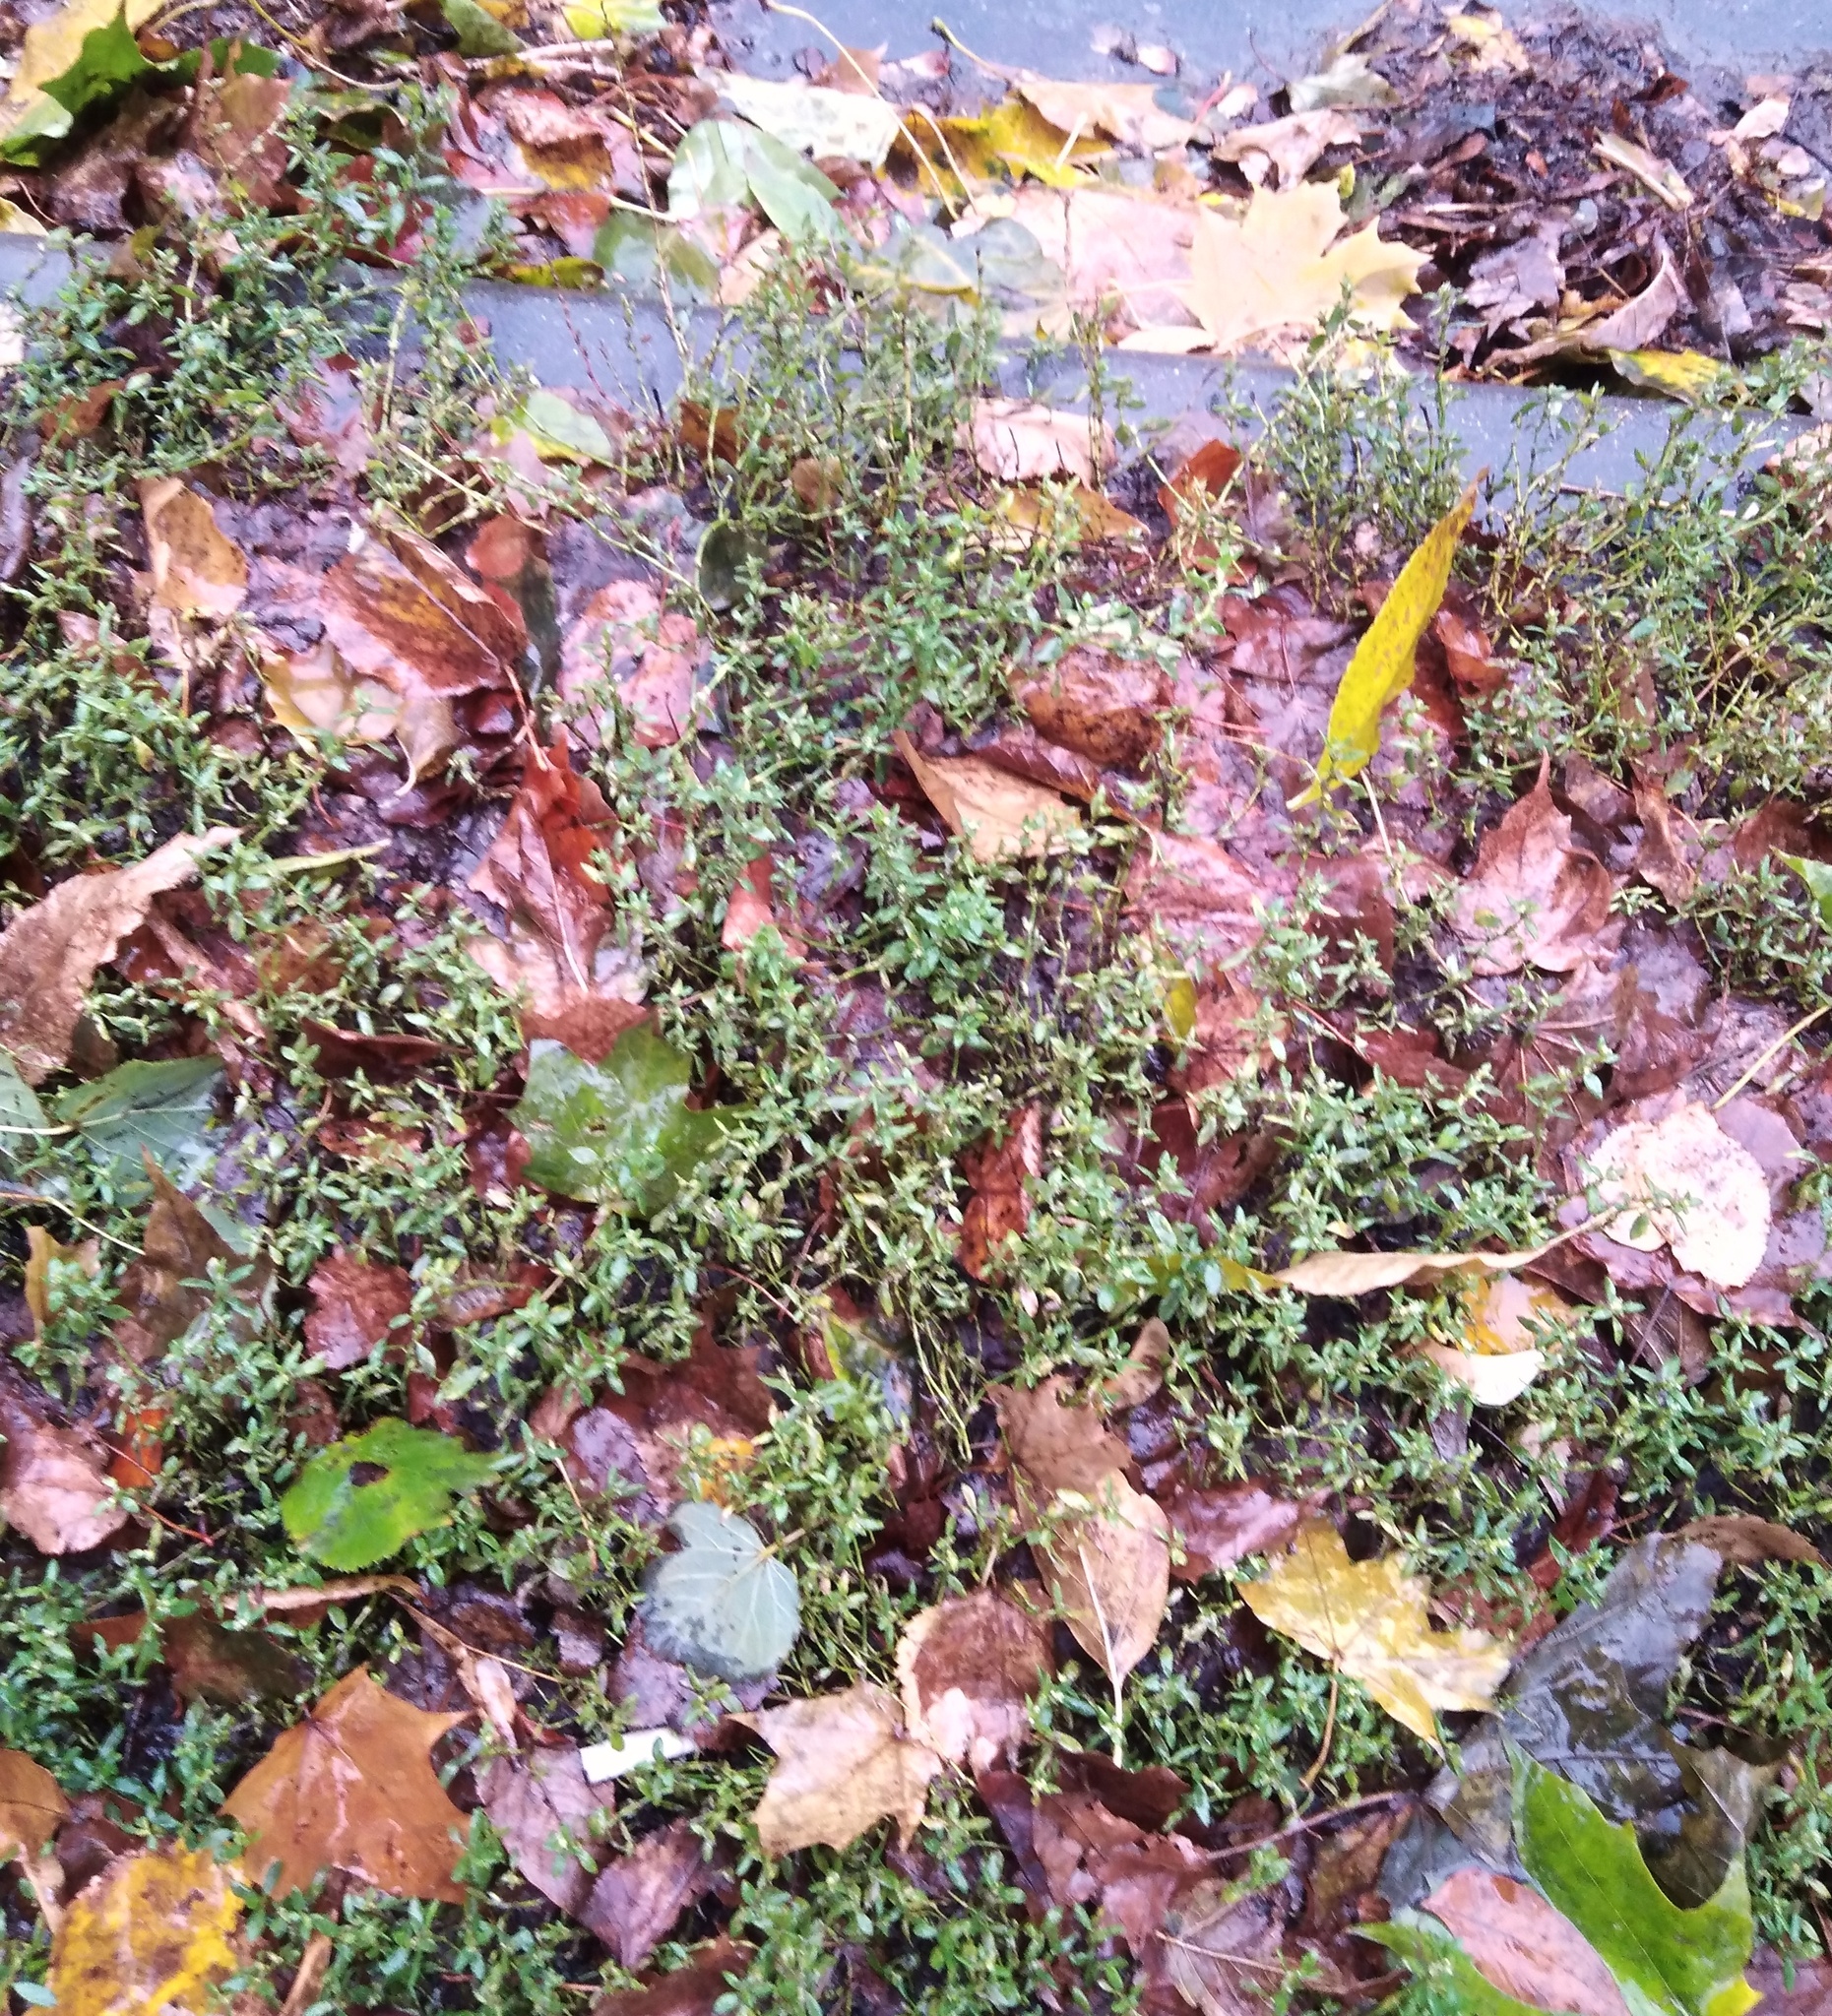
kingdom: Plantae
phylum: Tracheophyta
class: Magnoliopsida
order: Caryophyllales
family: Polygonaceae
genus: Polygonum
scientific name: Polygonum
